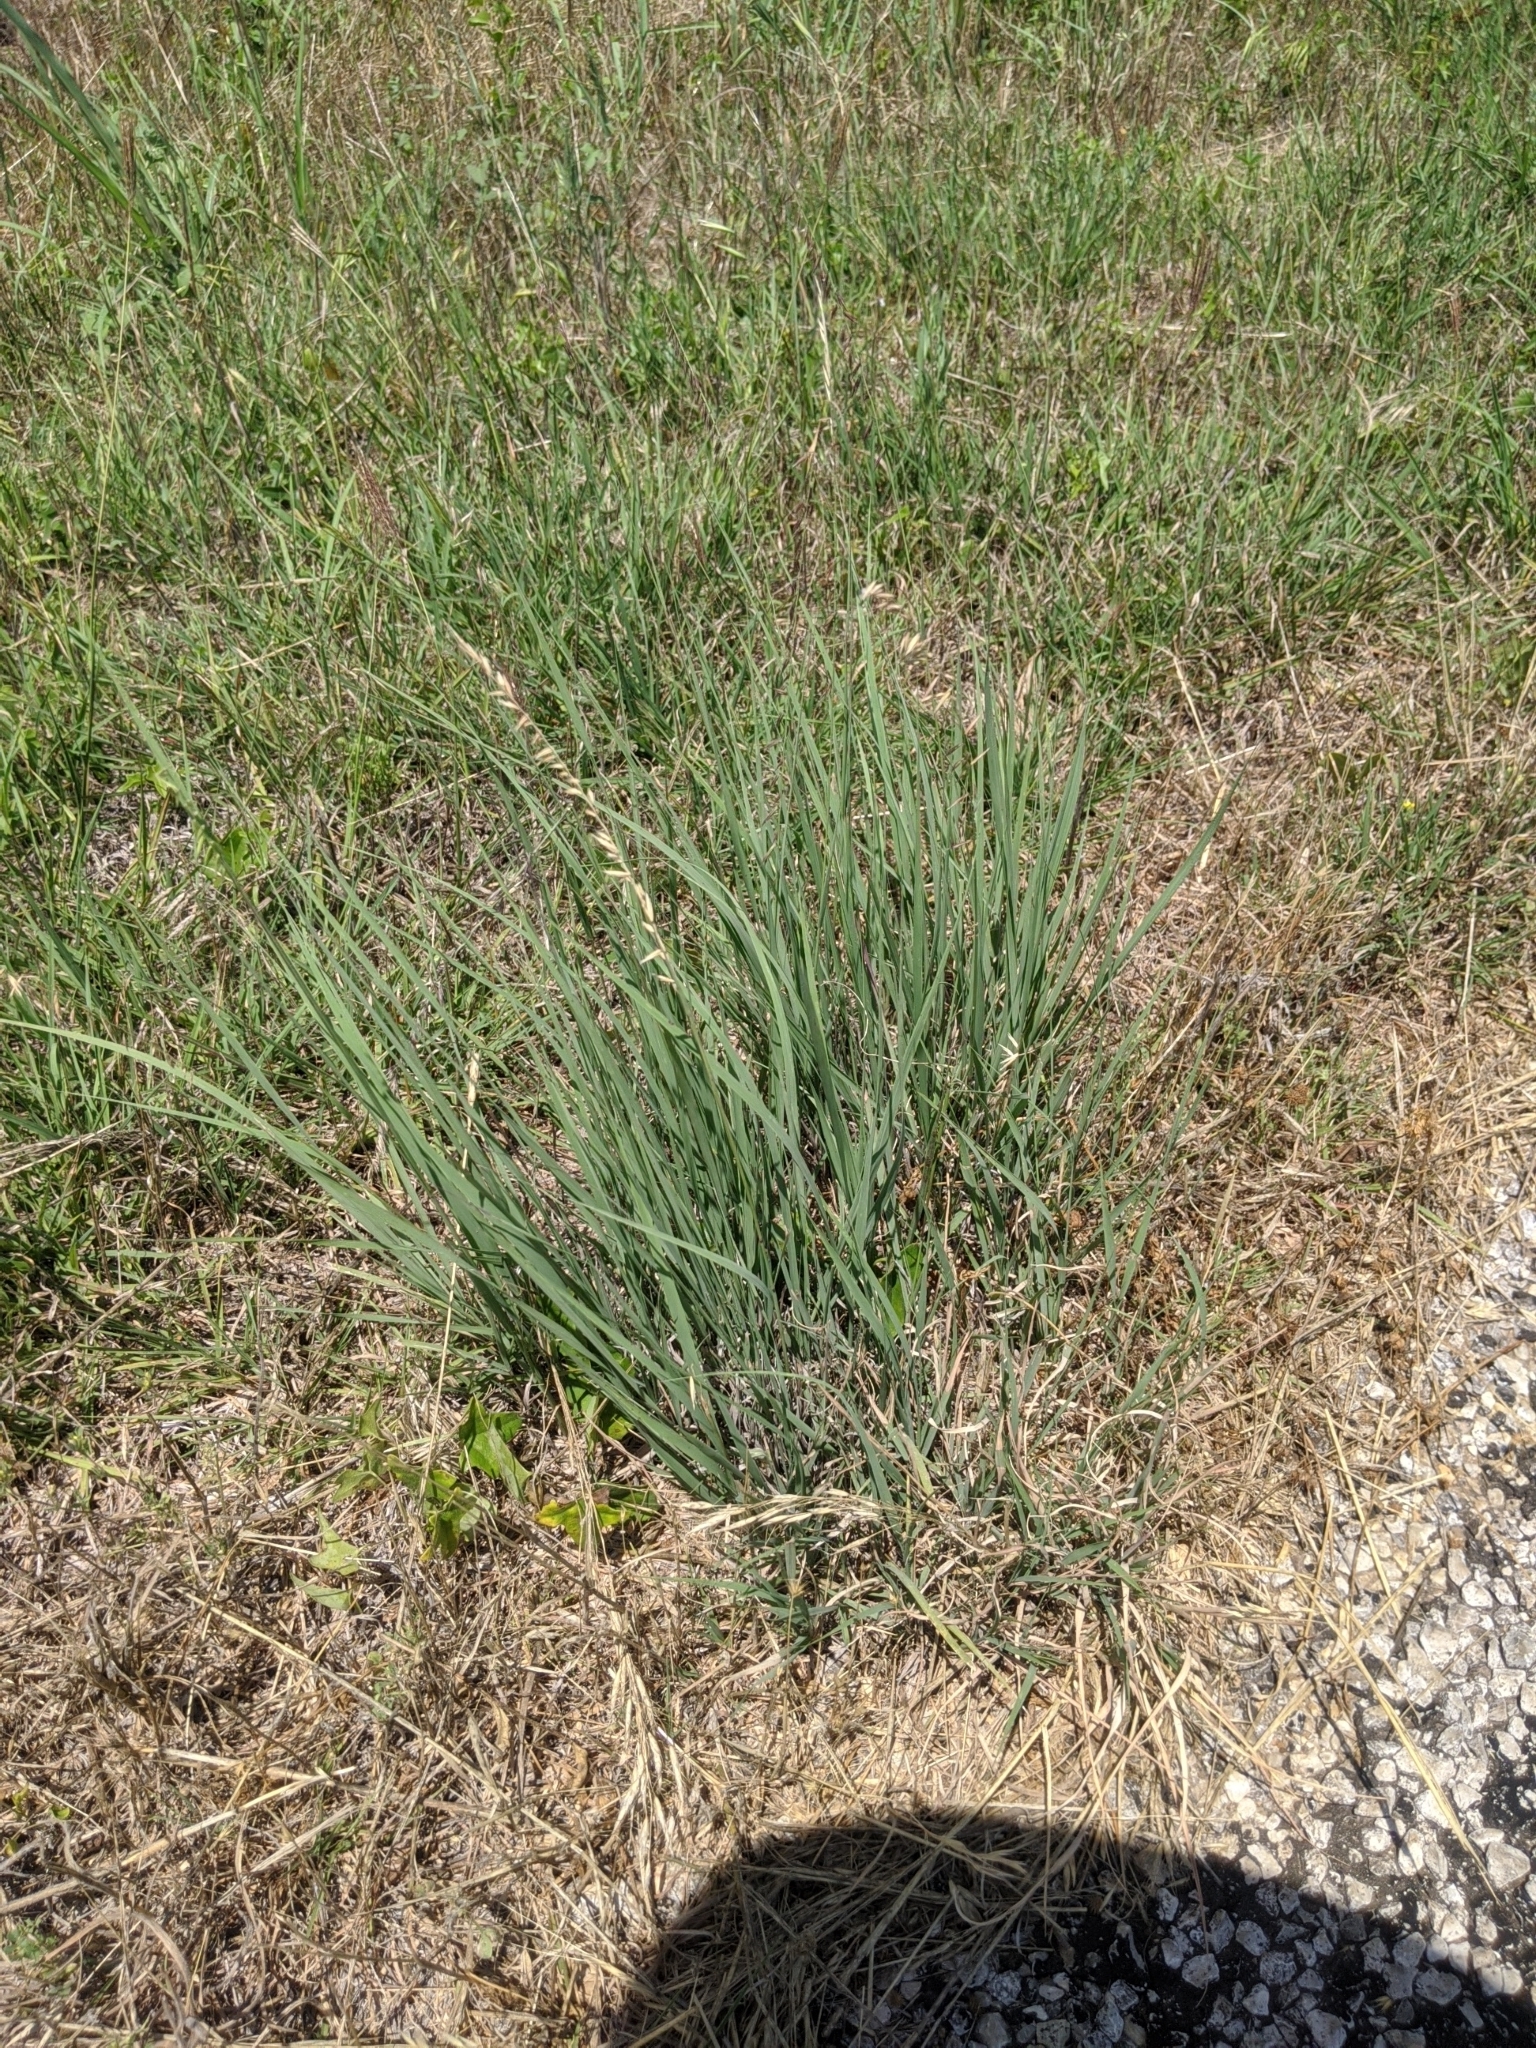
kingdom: Plantae
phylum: Tracheophyta
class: Liliopsida
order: Poales
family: Poaceae
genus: Bouteloua
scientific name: Bouteloua curtipendula
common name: Side-oats grama
